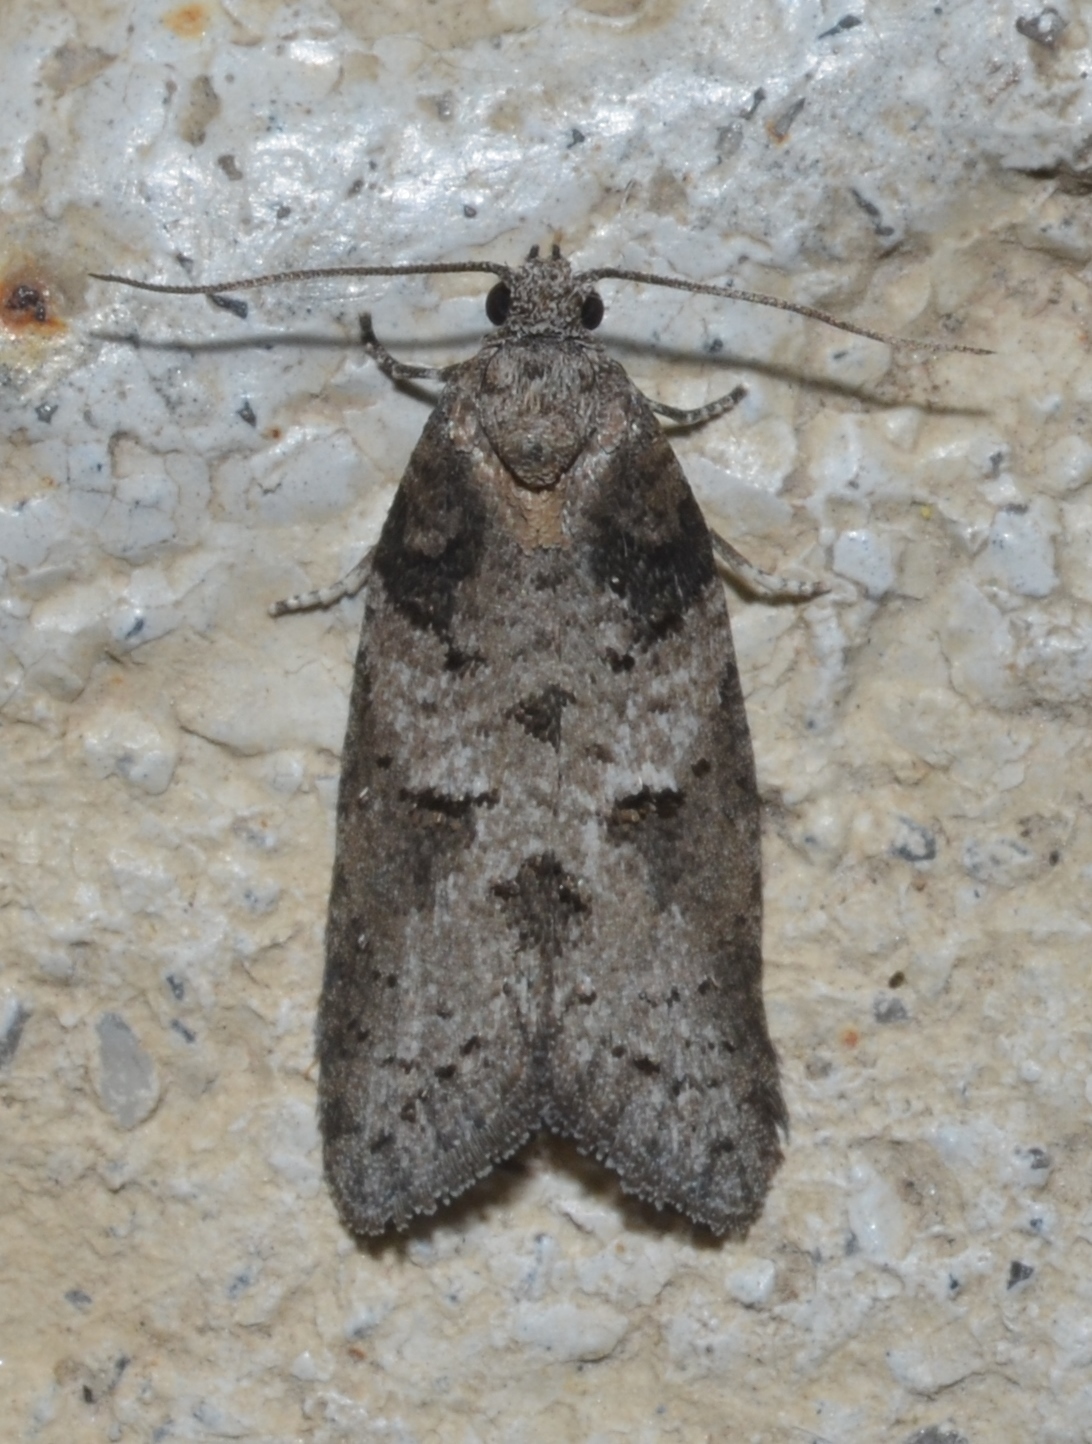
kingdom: Animalia
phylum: Arthropoda
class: Insecta
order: Lepidoptera
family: Tortricidae
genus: Decodes
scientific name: Decodes basiplagana
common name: Gray-marked tortricid
